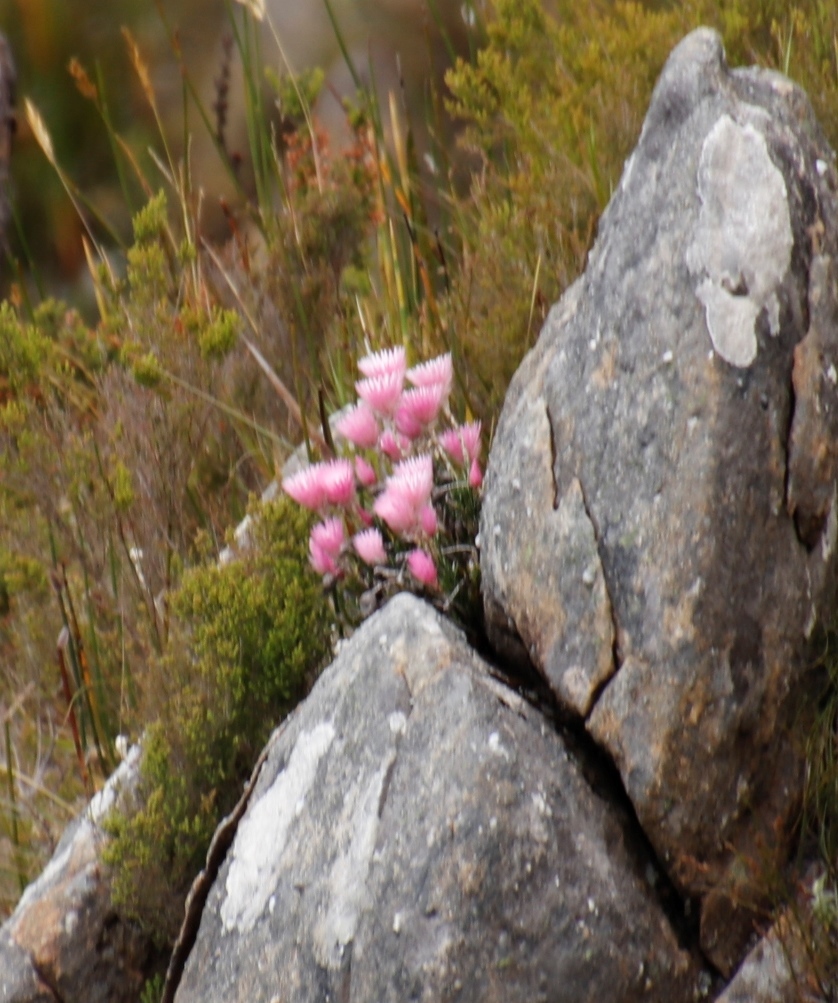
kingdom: Plantae
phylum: Tracheophyta
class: Magnoliopsida
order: Asterales
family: Asteraceae
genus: Edmondia
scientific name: Edmondia pinifolia
